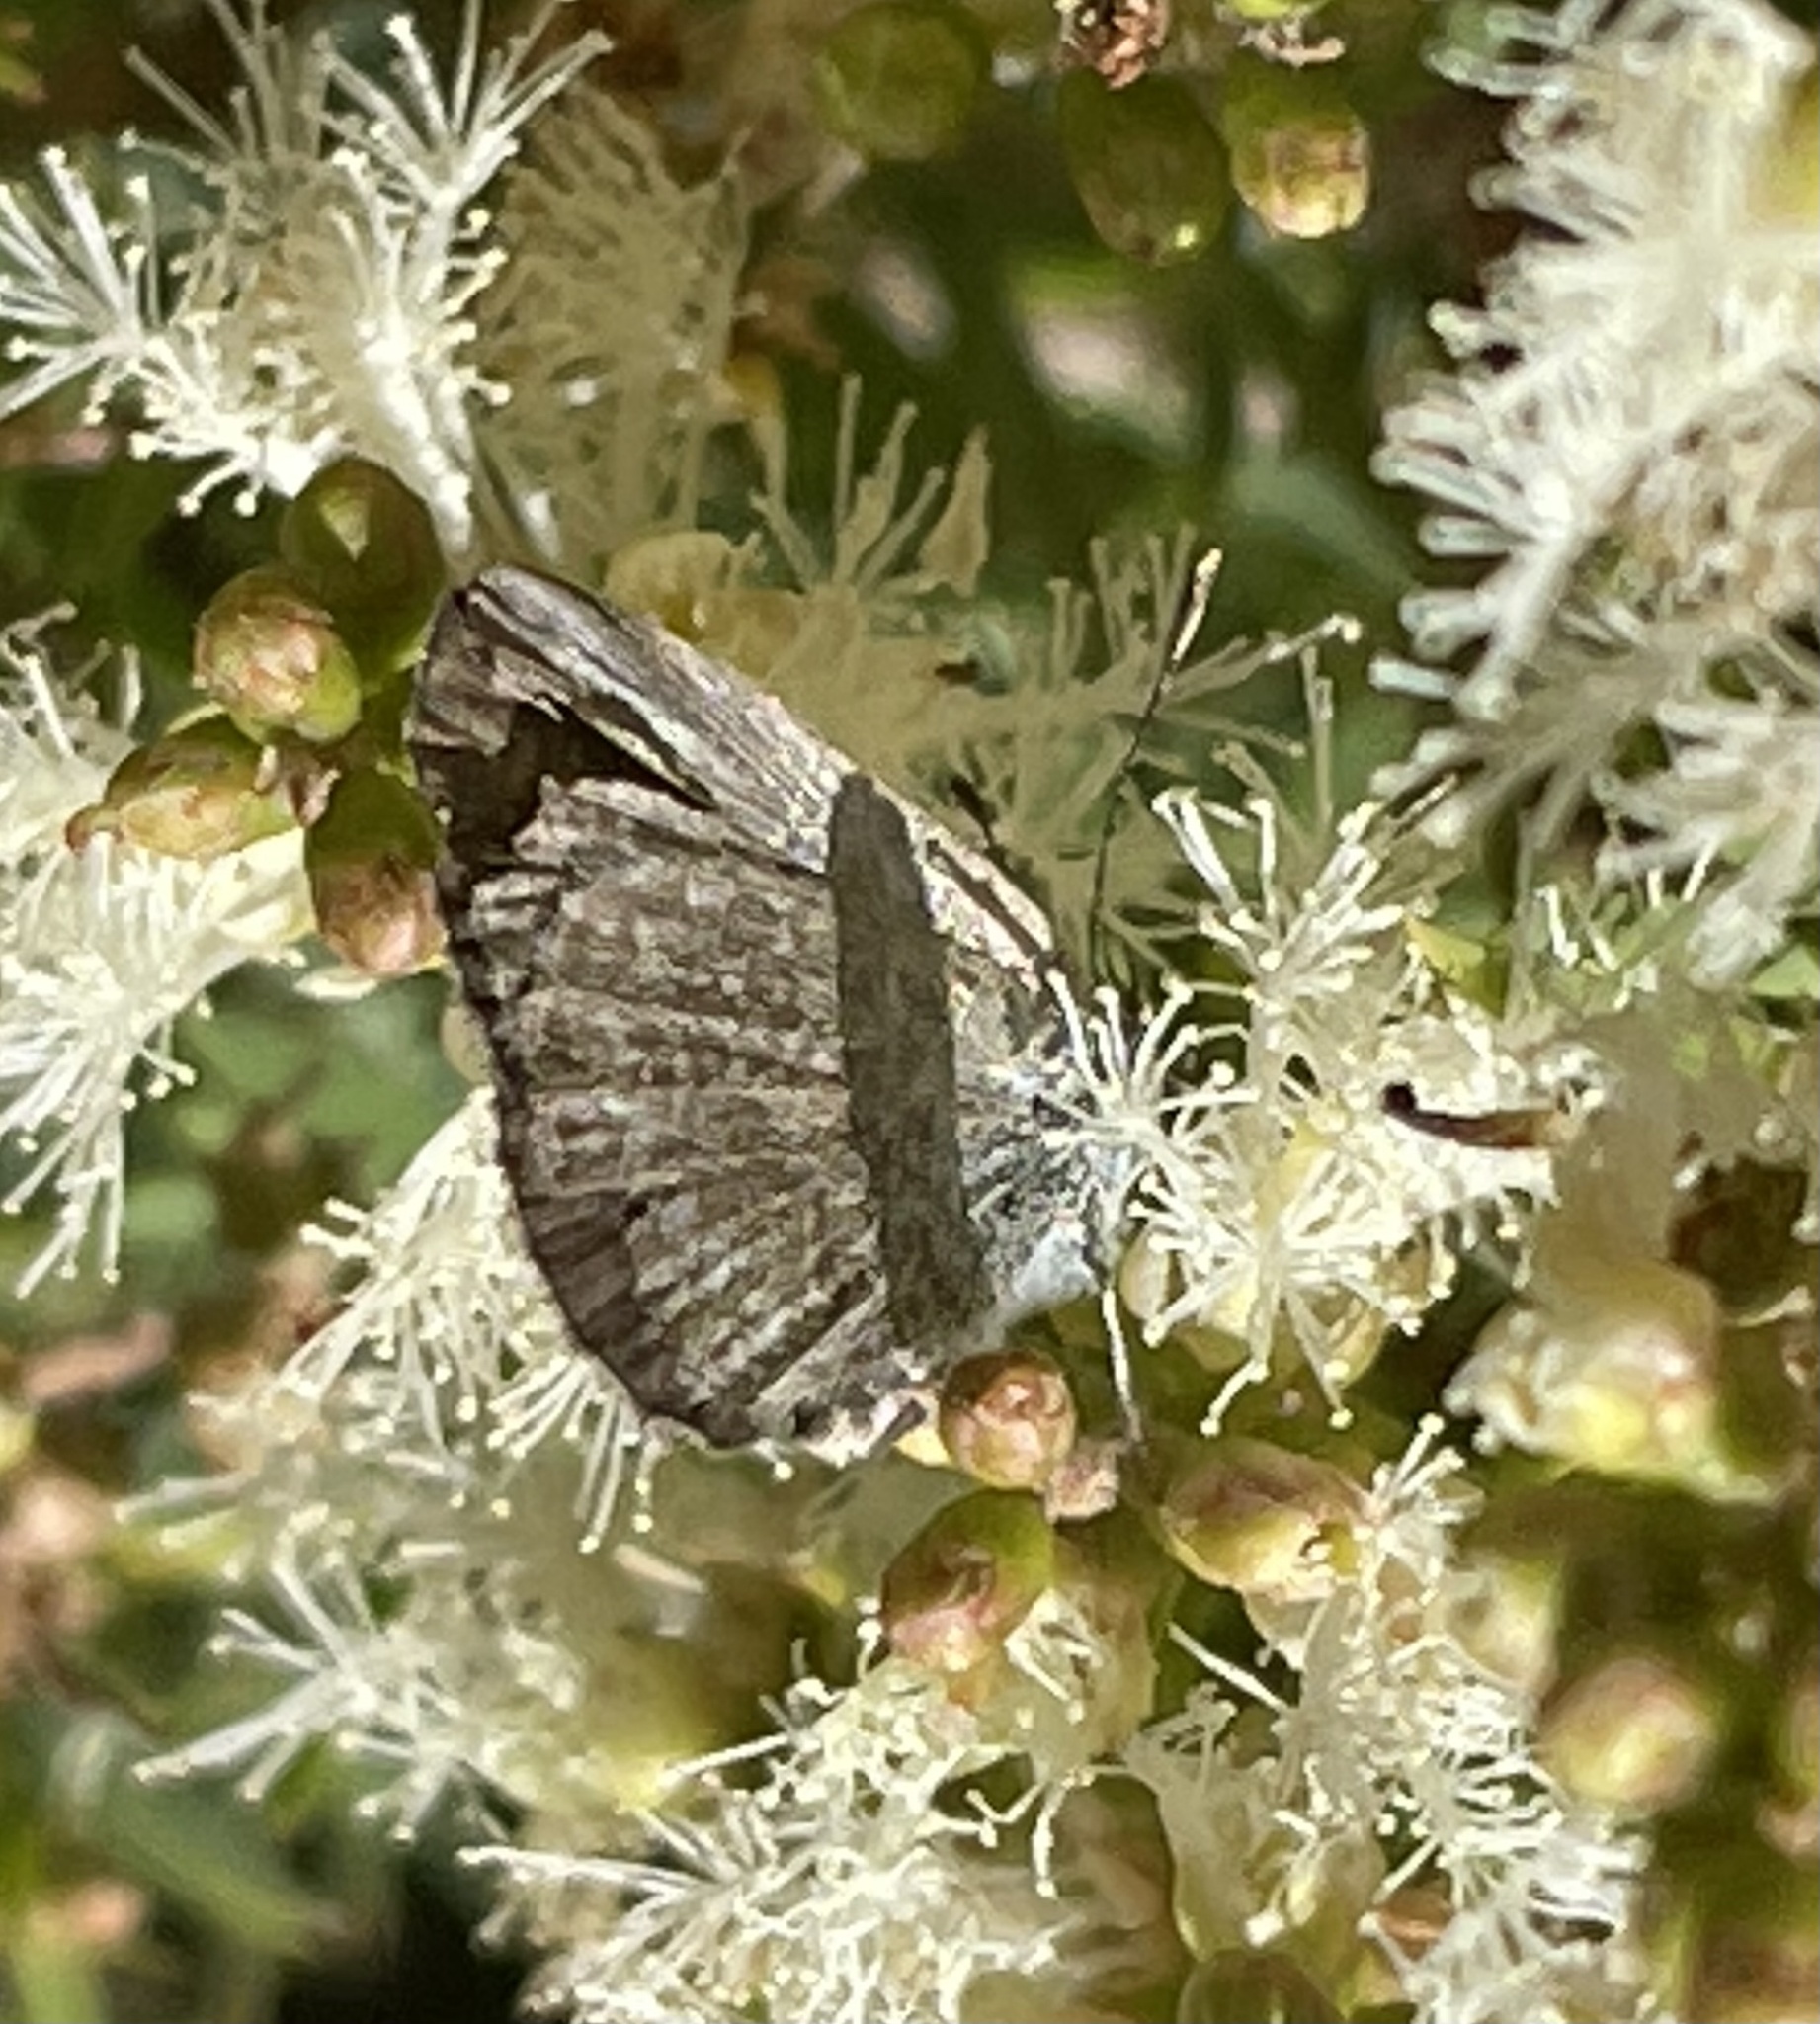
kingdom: Animalia
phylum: Arthropoda
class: Insecta
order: Lepidoptera
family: Lycaenidae
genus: Zizina
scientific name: Zizina otis
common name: Lesser grass blue
